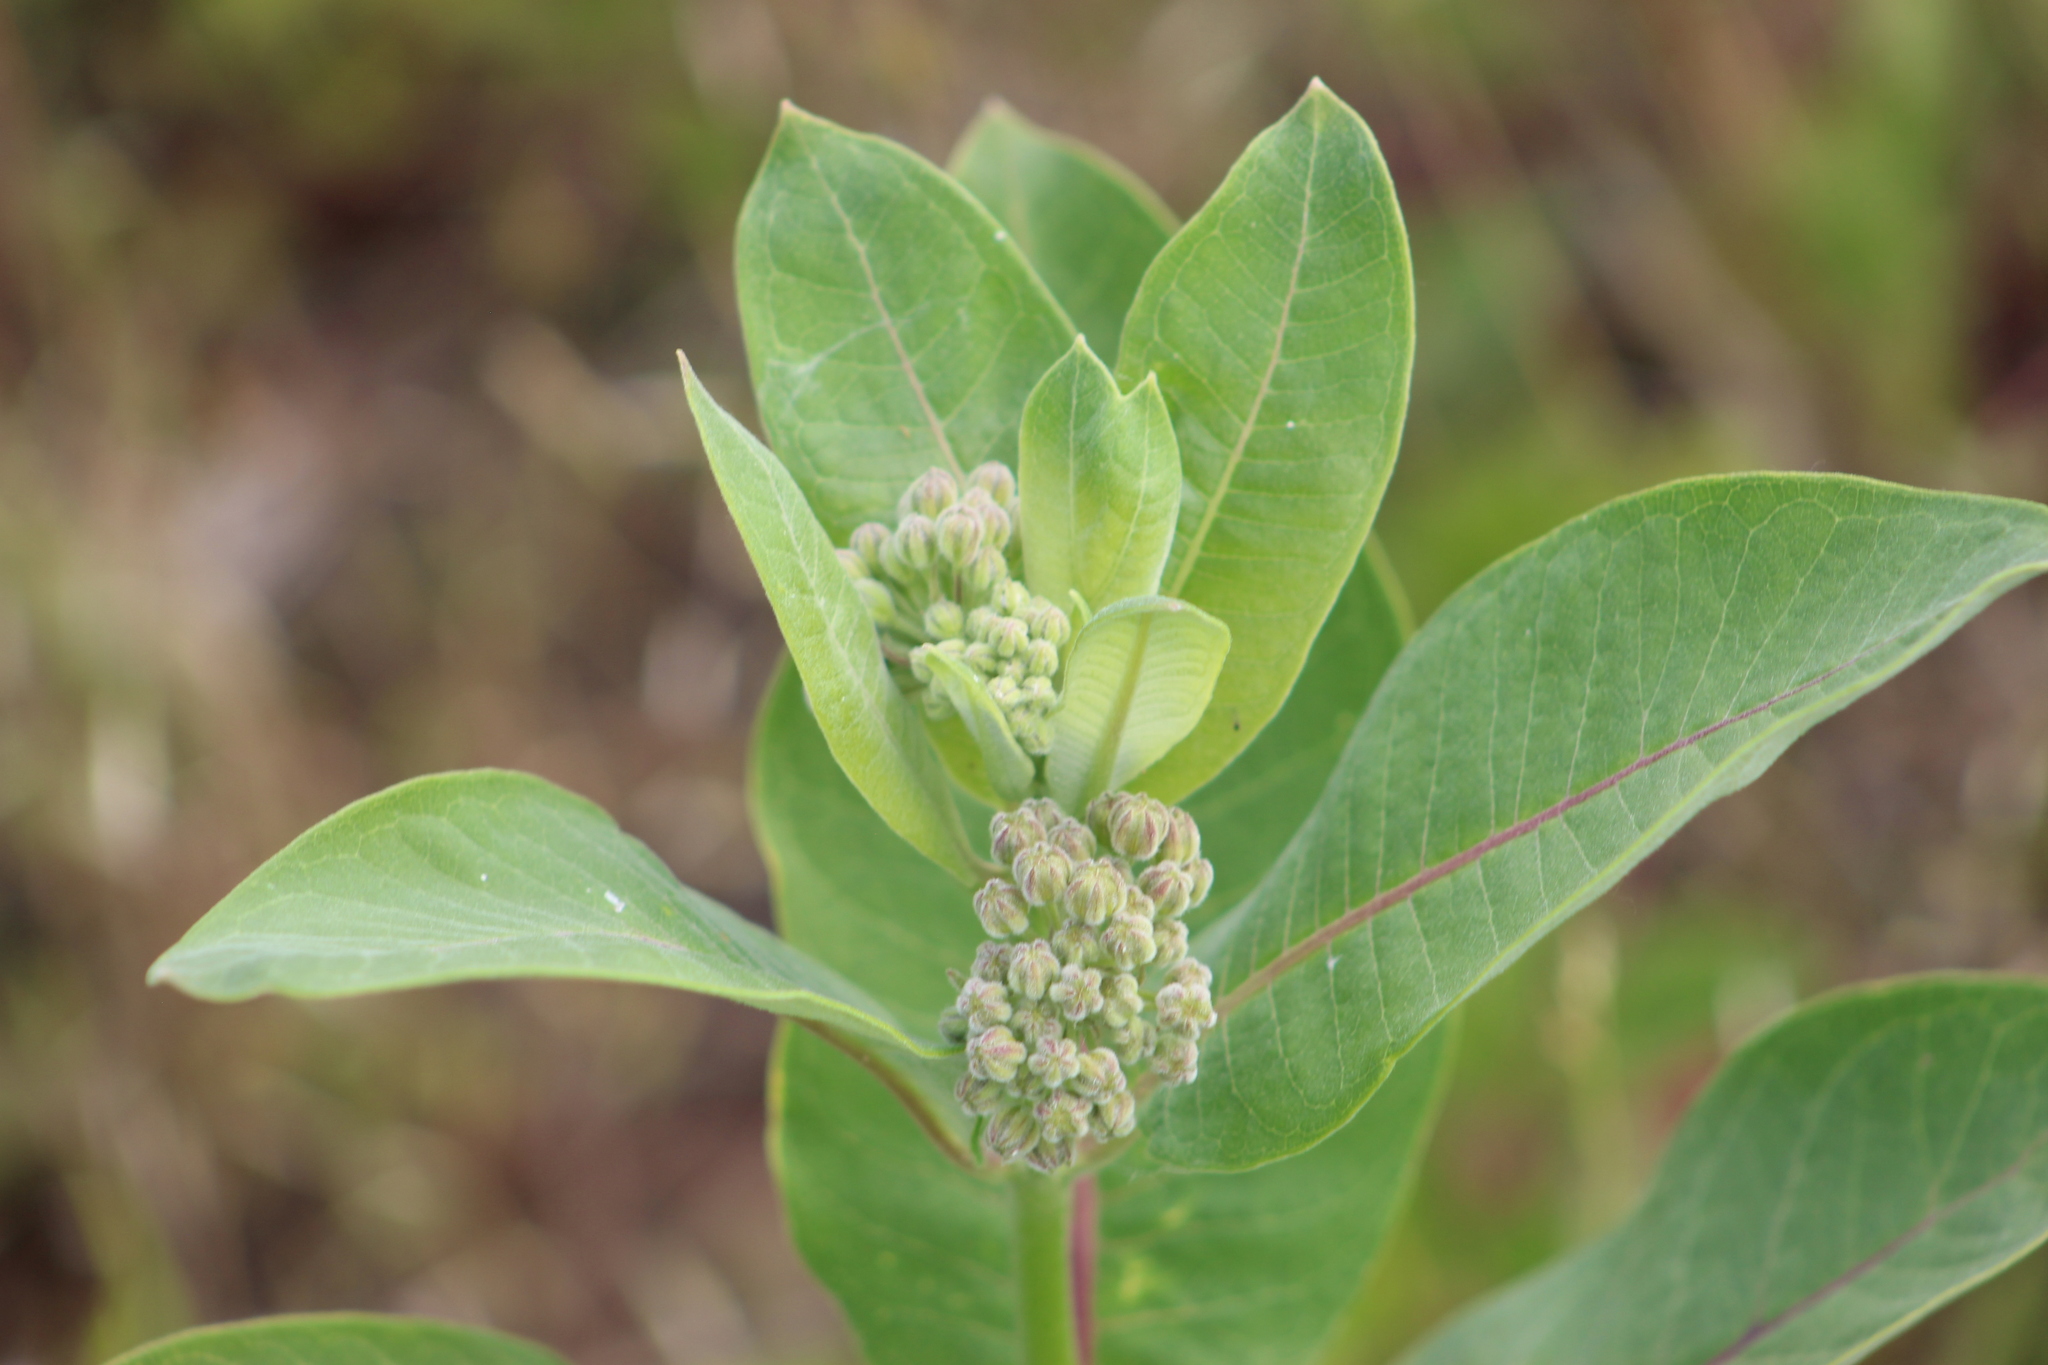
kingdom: Plantae
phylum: Tracheophyta
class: Magnoliopsida
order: Gentianales
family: Apocynaceae
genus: Asclepias
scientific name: Asclepias syriaca
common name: Common milkweed
